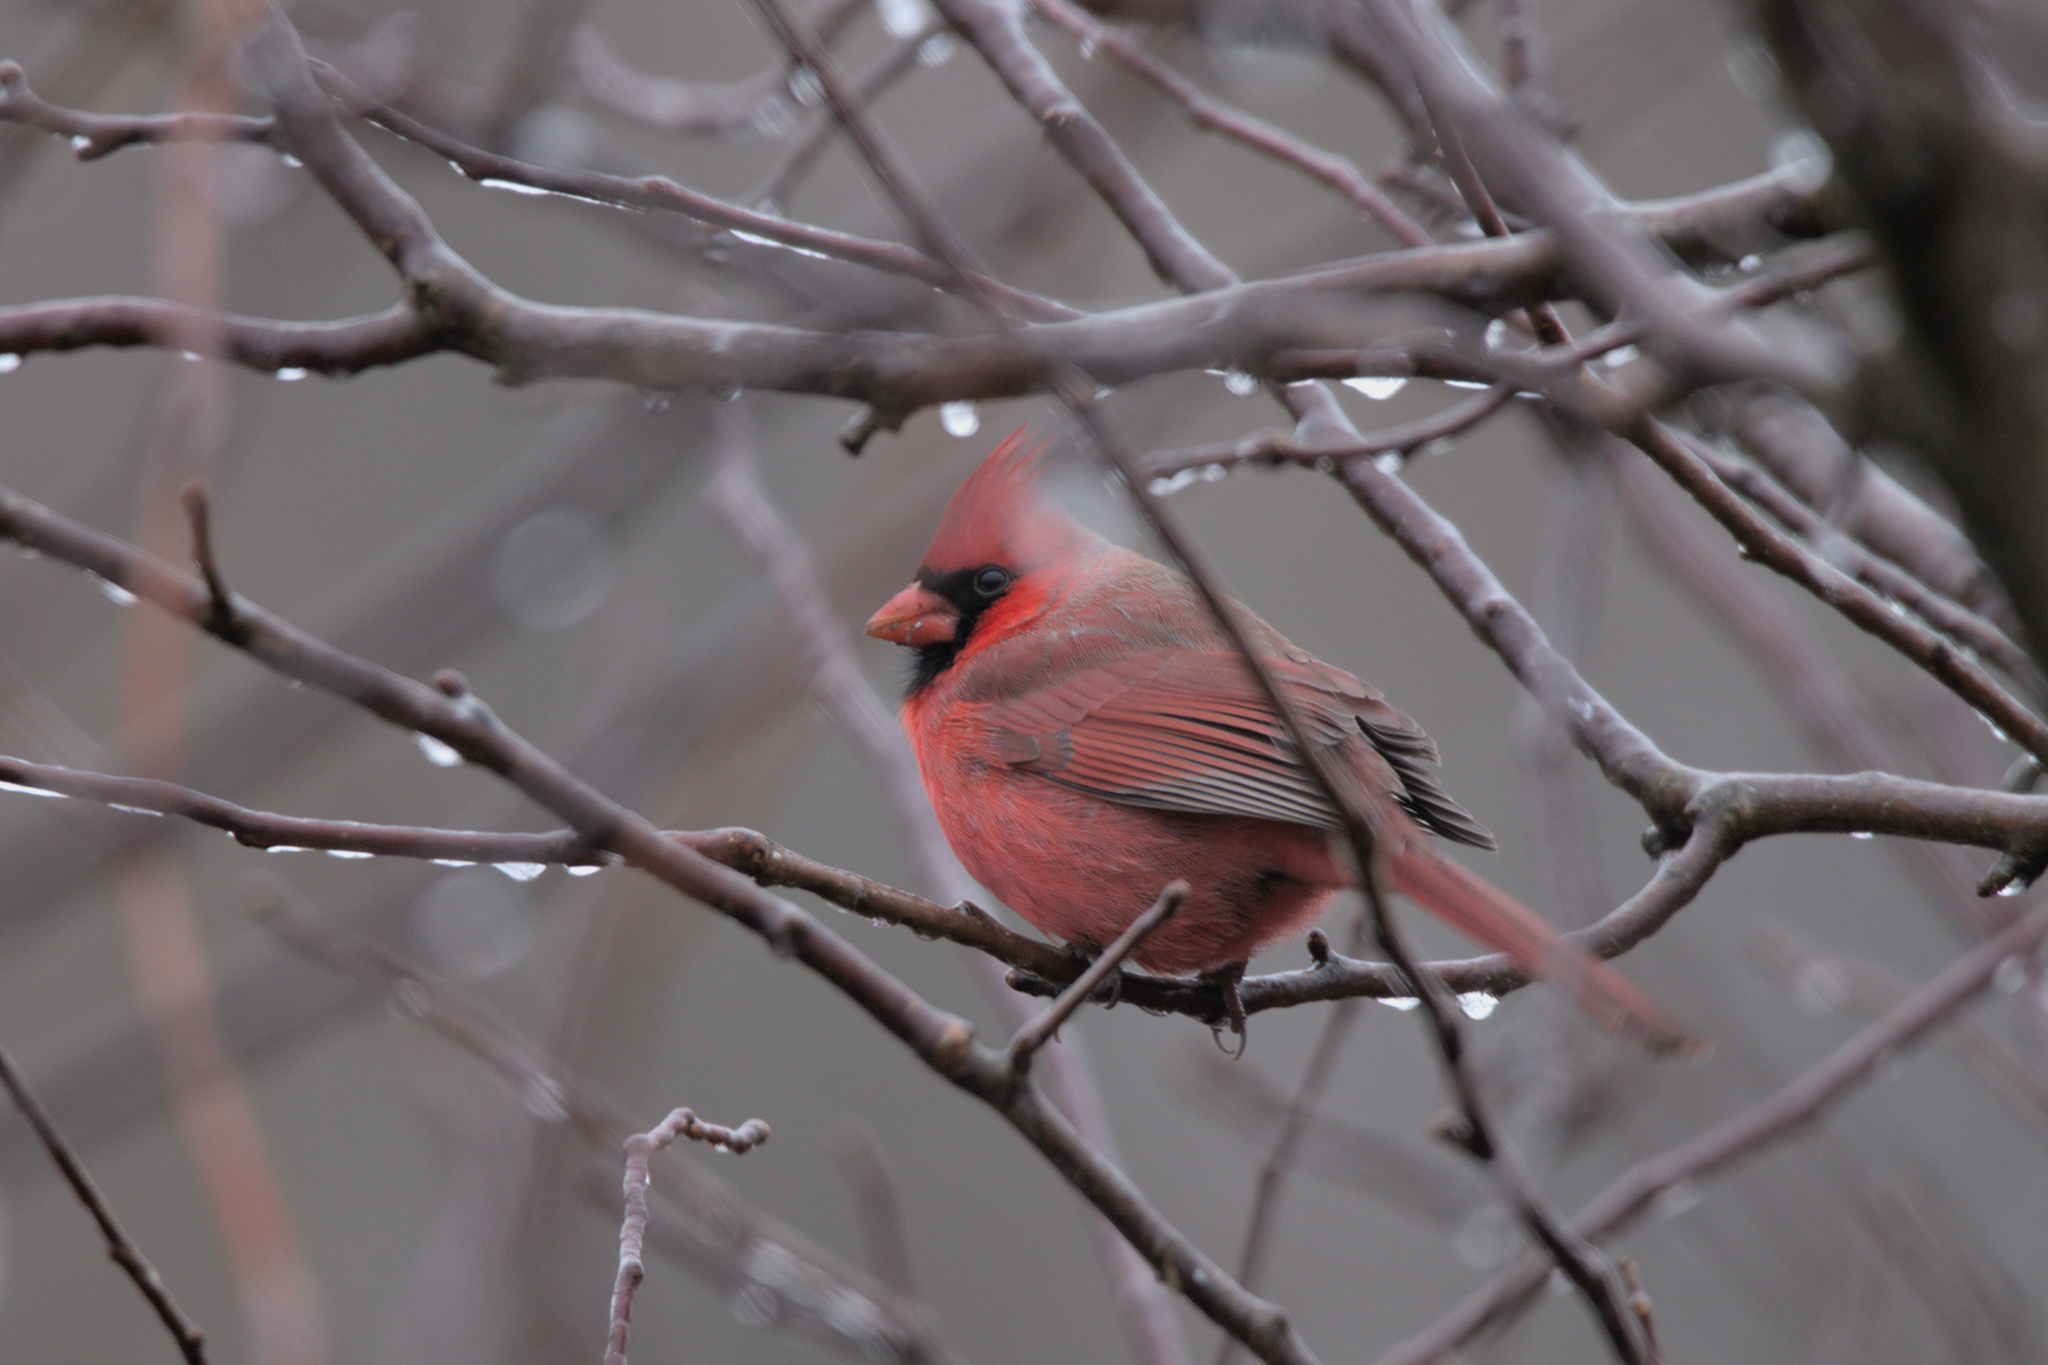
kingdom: Animalia
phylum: Chordata
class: Aves
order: Passeriformes
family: Cardinalidae
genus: Cardinalis
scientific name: Cardinalis cardinalis
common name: Northern cardinal
